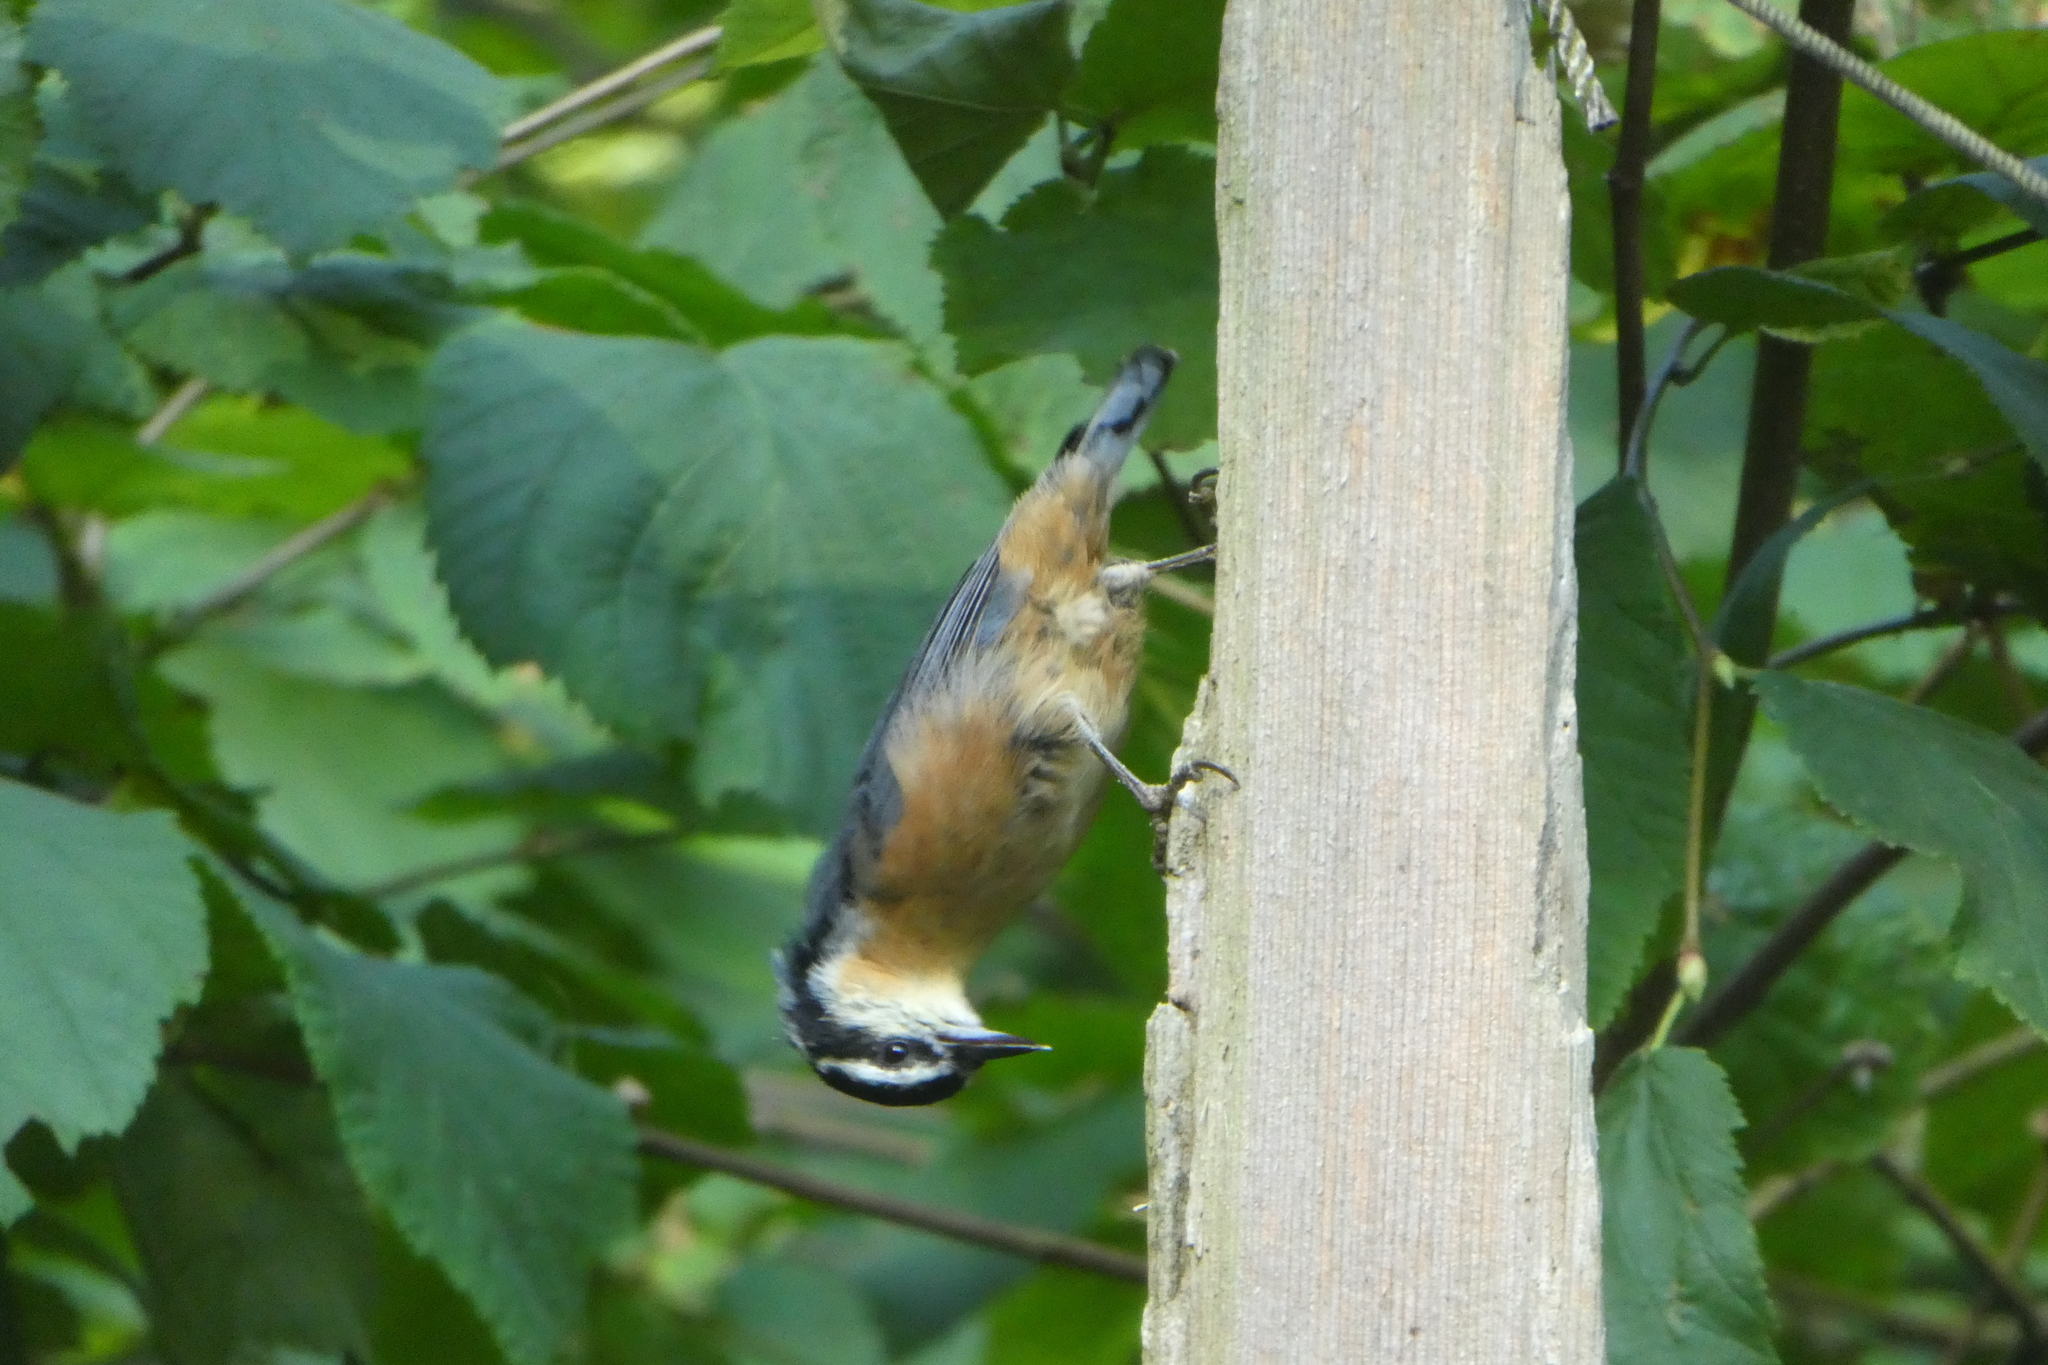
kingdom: Animalia
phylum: Chordata
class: Aves
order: Passeriformes
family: Sittidae
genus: Sitta
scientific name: Sitta canadensis
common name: Red-breasted nuthatch
